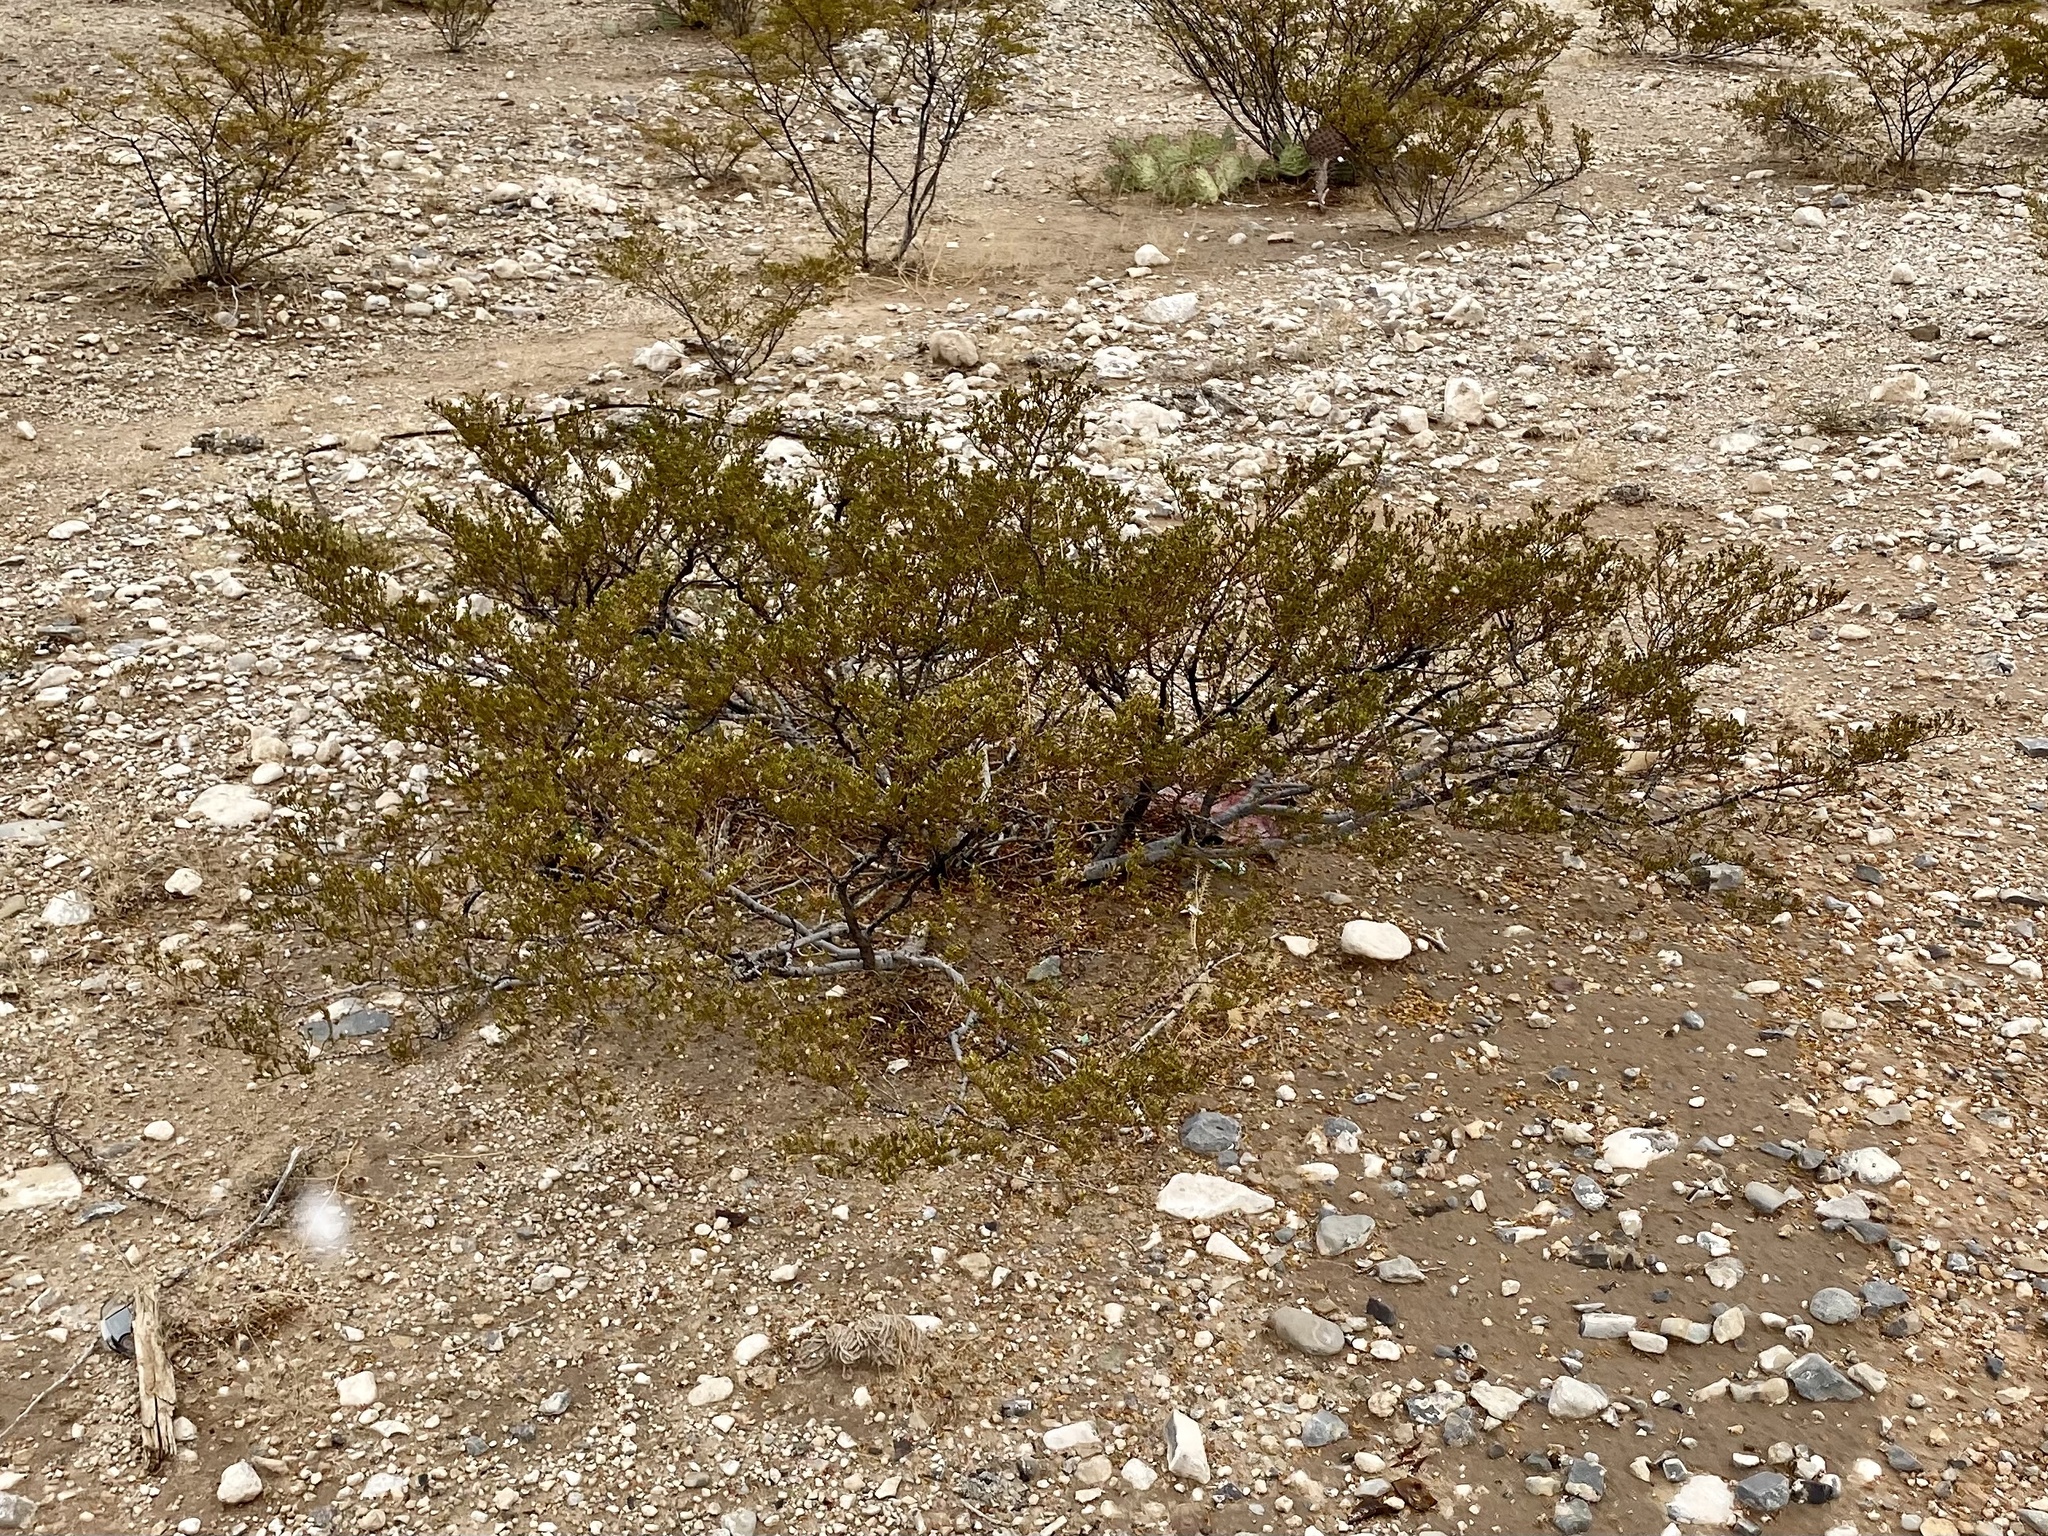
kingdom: Plantae
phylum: Tracheophyta
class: Magnoliopsida
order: Zygophyllales
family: Zygophyllaceae
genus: Larrea
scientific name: Larrea tridentata
